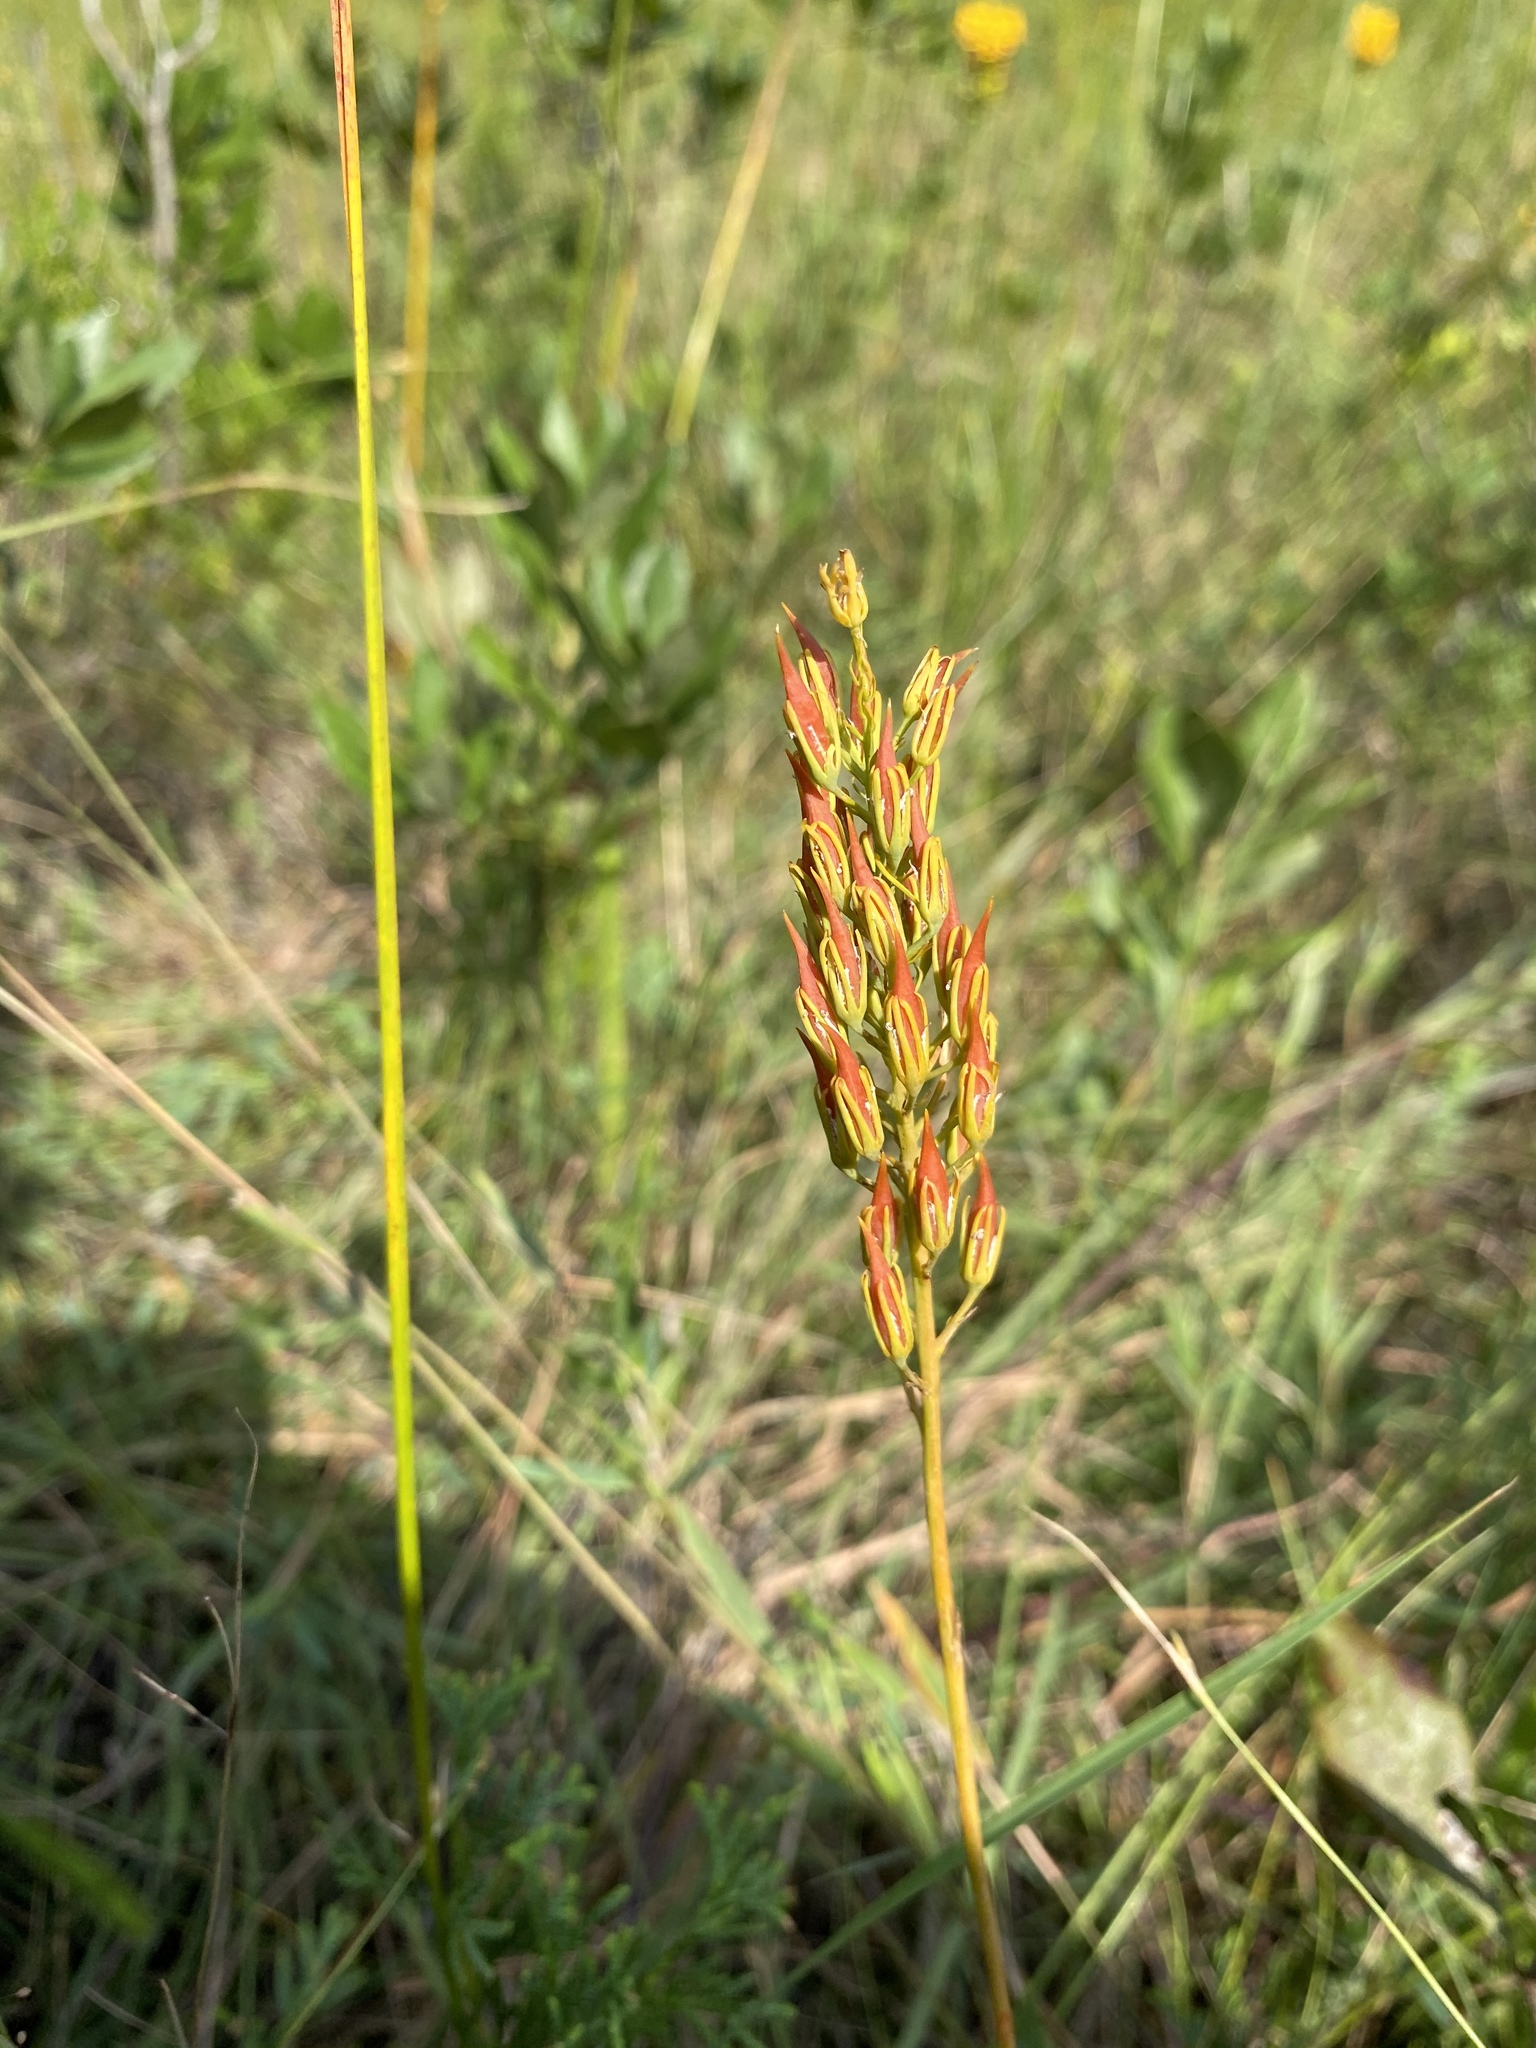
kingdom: Plantae
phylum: Tracheophyta
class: Liliopsida
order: Dioscoreales
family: Nartheciaceae
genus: Narthecium
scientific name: Narthecium americanum
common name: Bog-asphodel
